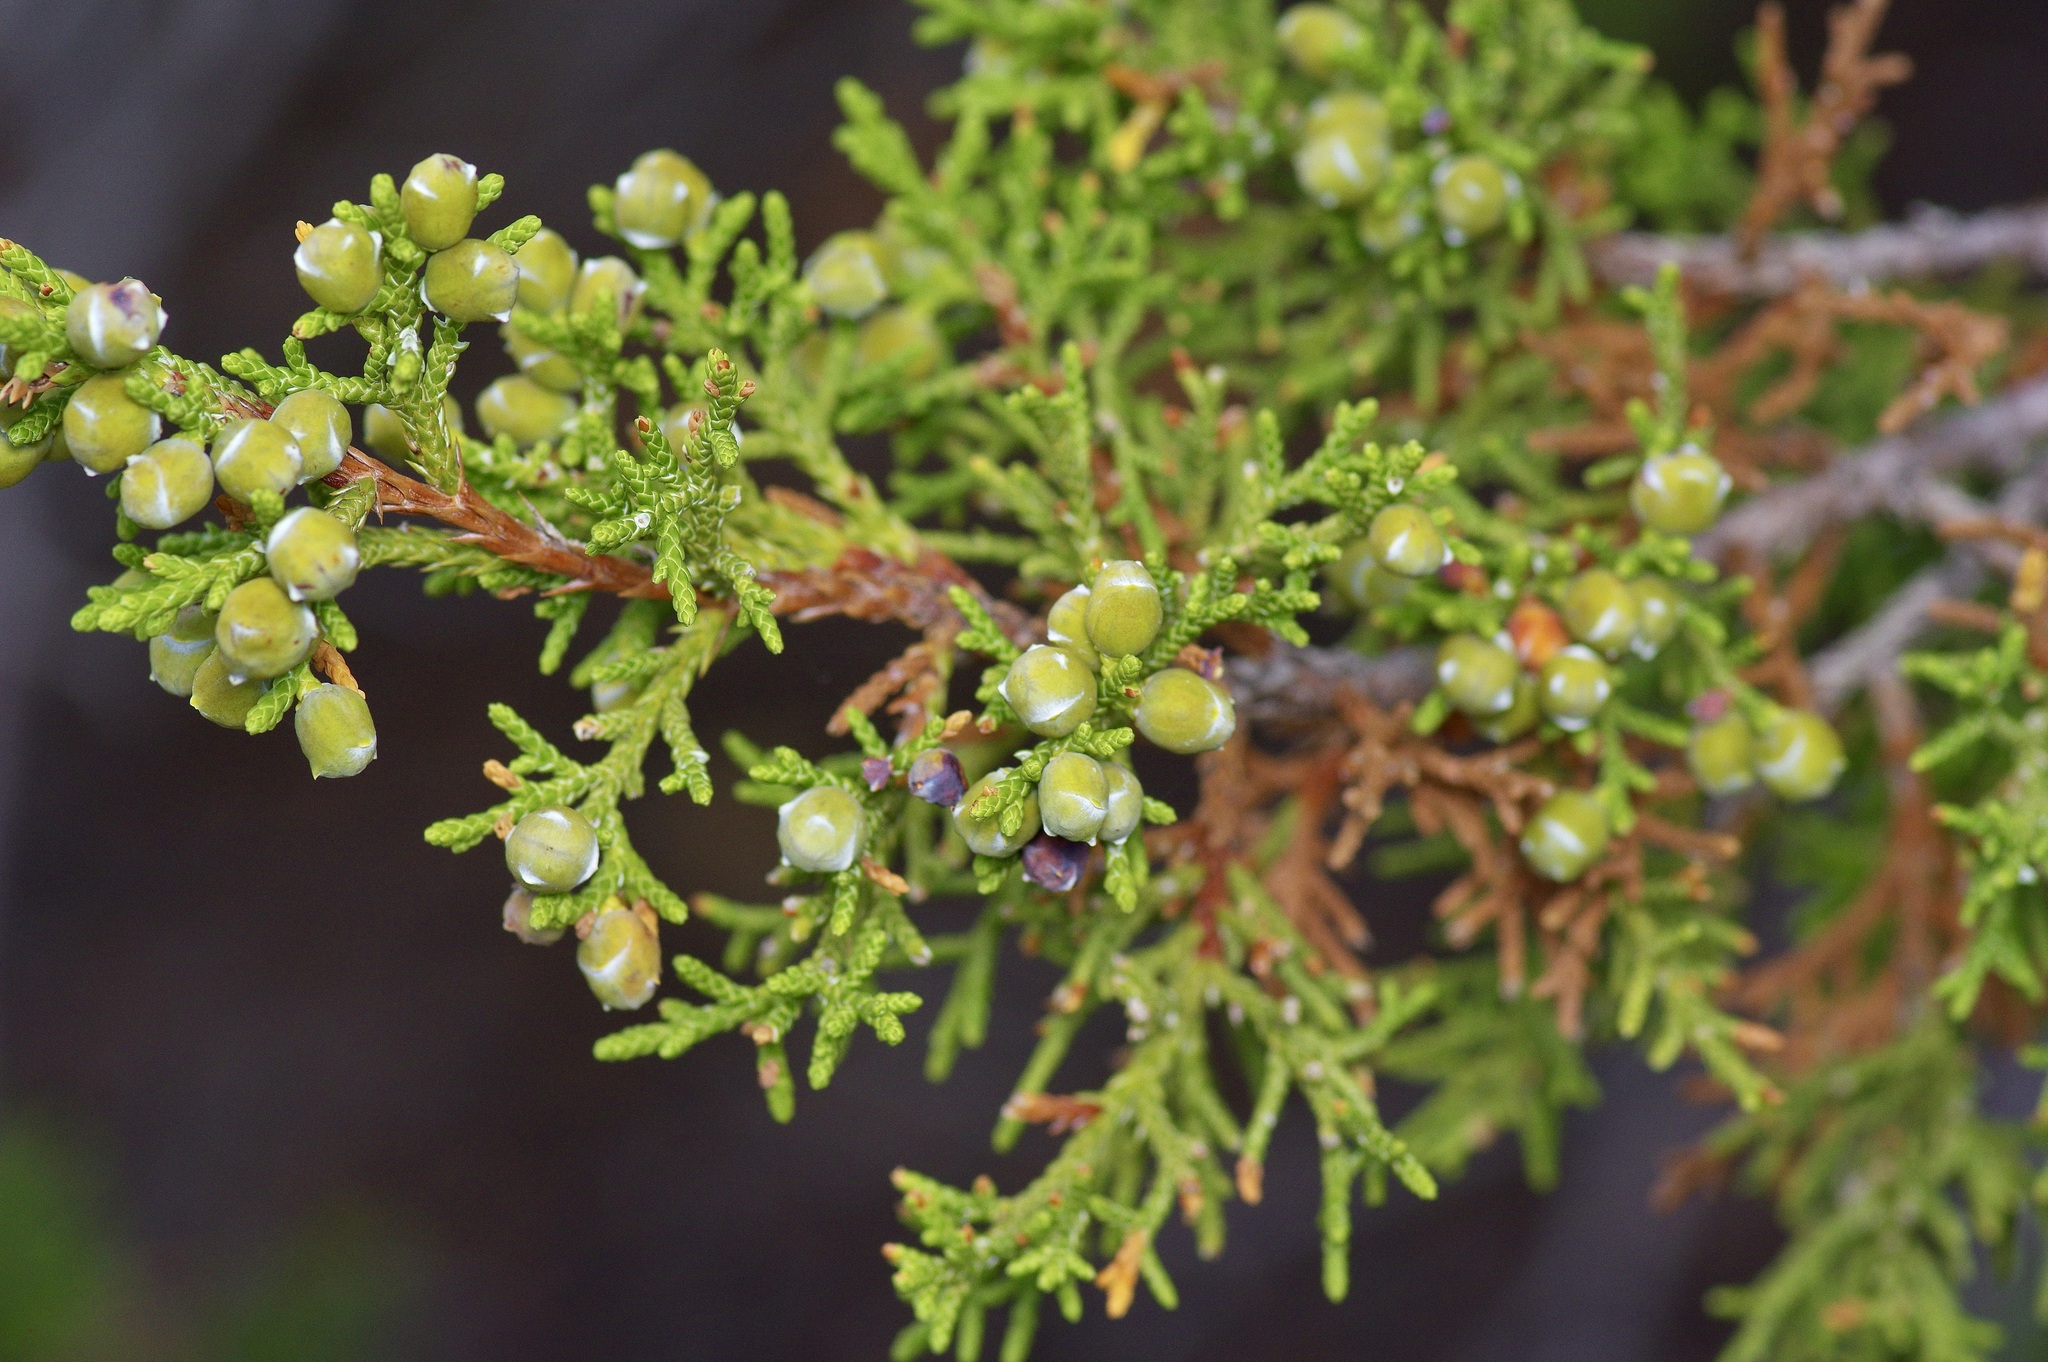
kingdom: Plantae
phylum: Tracheophyta
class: Pinopsida
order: Pinales
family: Cupressaceae
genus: Juniperus
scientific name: Juniperus monosperma
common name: One-seed juniper
